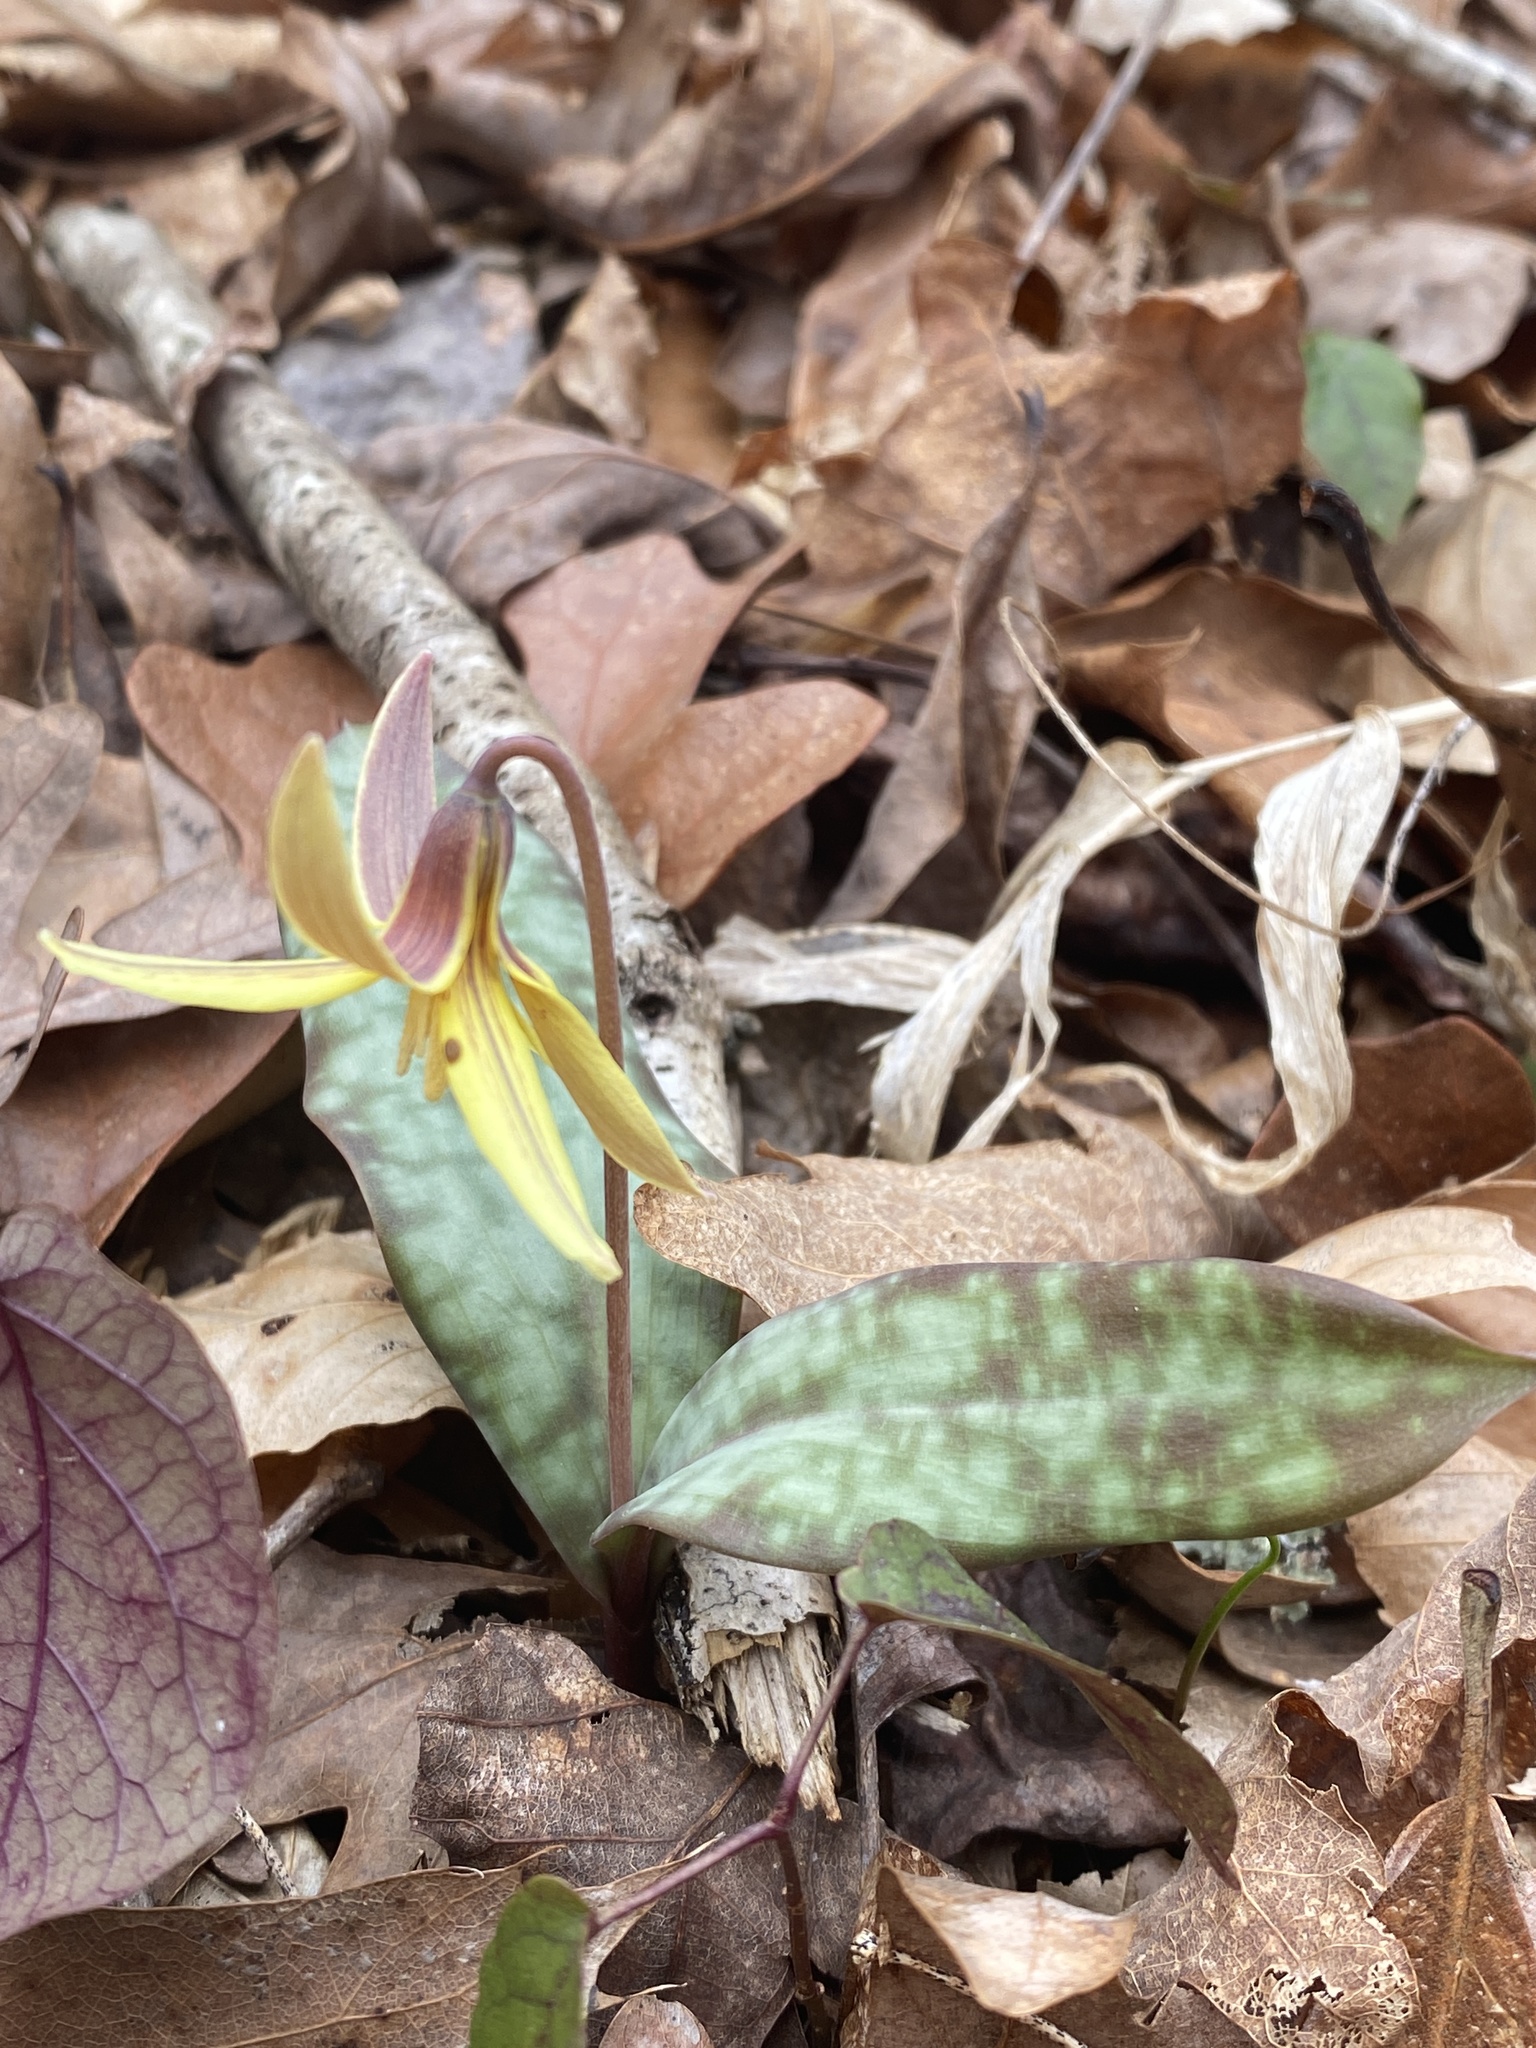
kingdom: Plantae
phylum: Tracheophyta
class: Liliopsida
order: Liliales
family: Liliaceae
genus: Erythronium
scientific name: Erythronium umbilicatum
